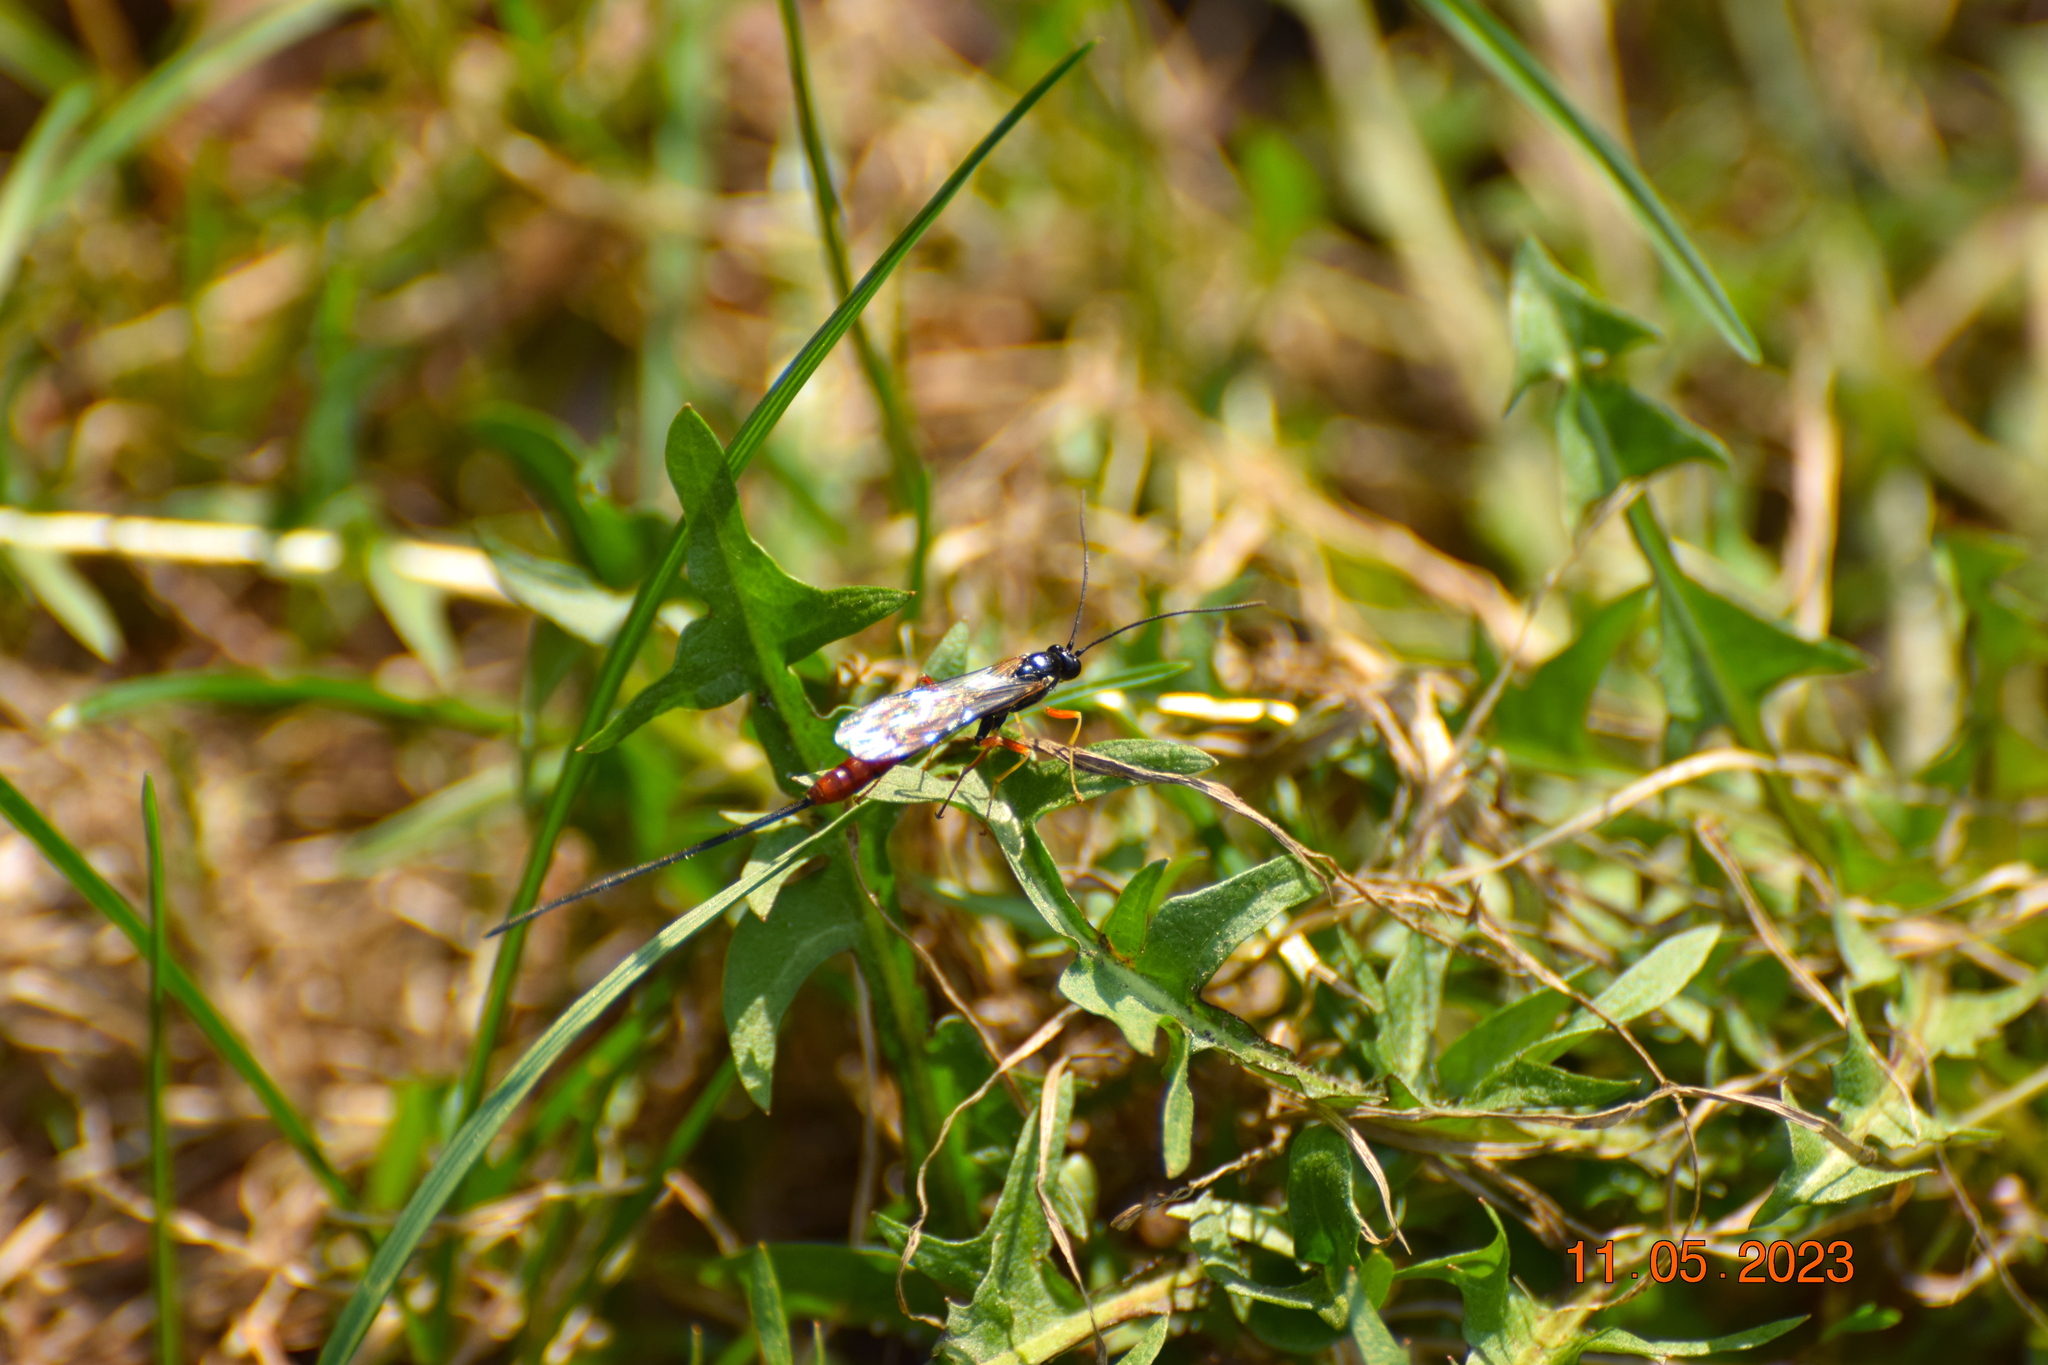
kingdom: Animalia
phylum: Arthropoda
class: Insecta
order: Hymenoptera
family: Ichneumonidae
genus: Dolichomitus
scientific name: Dolichomitus irritator
